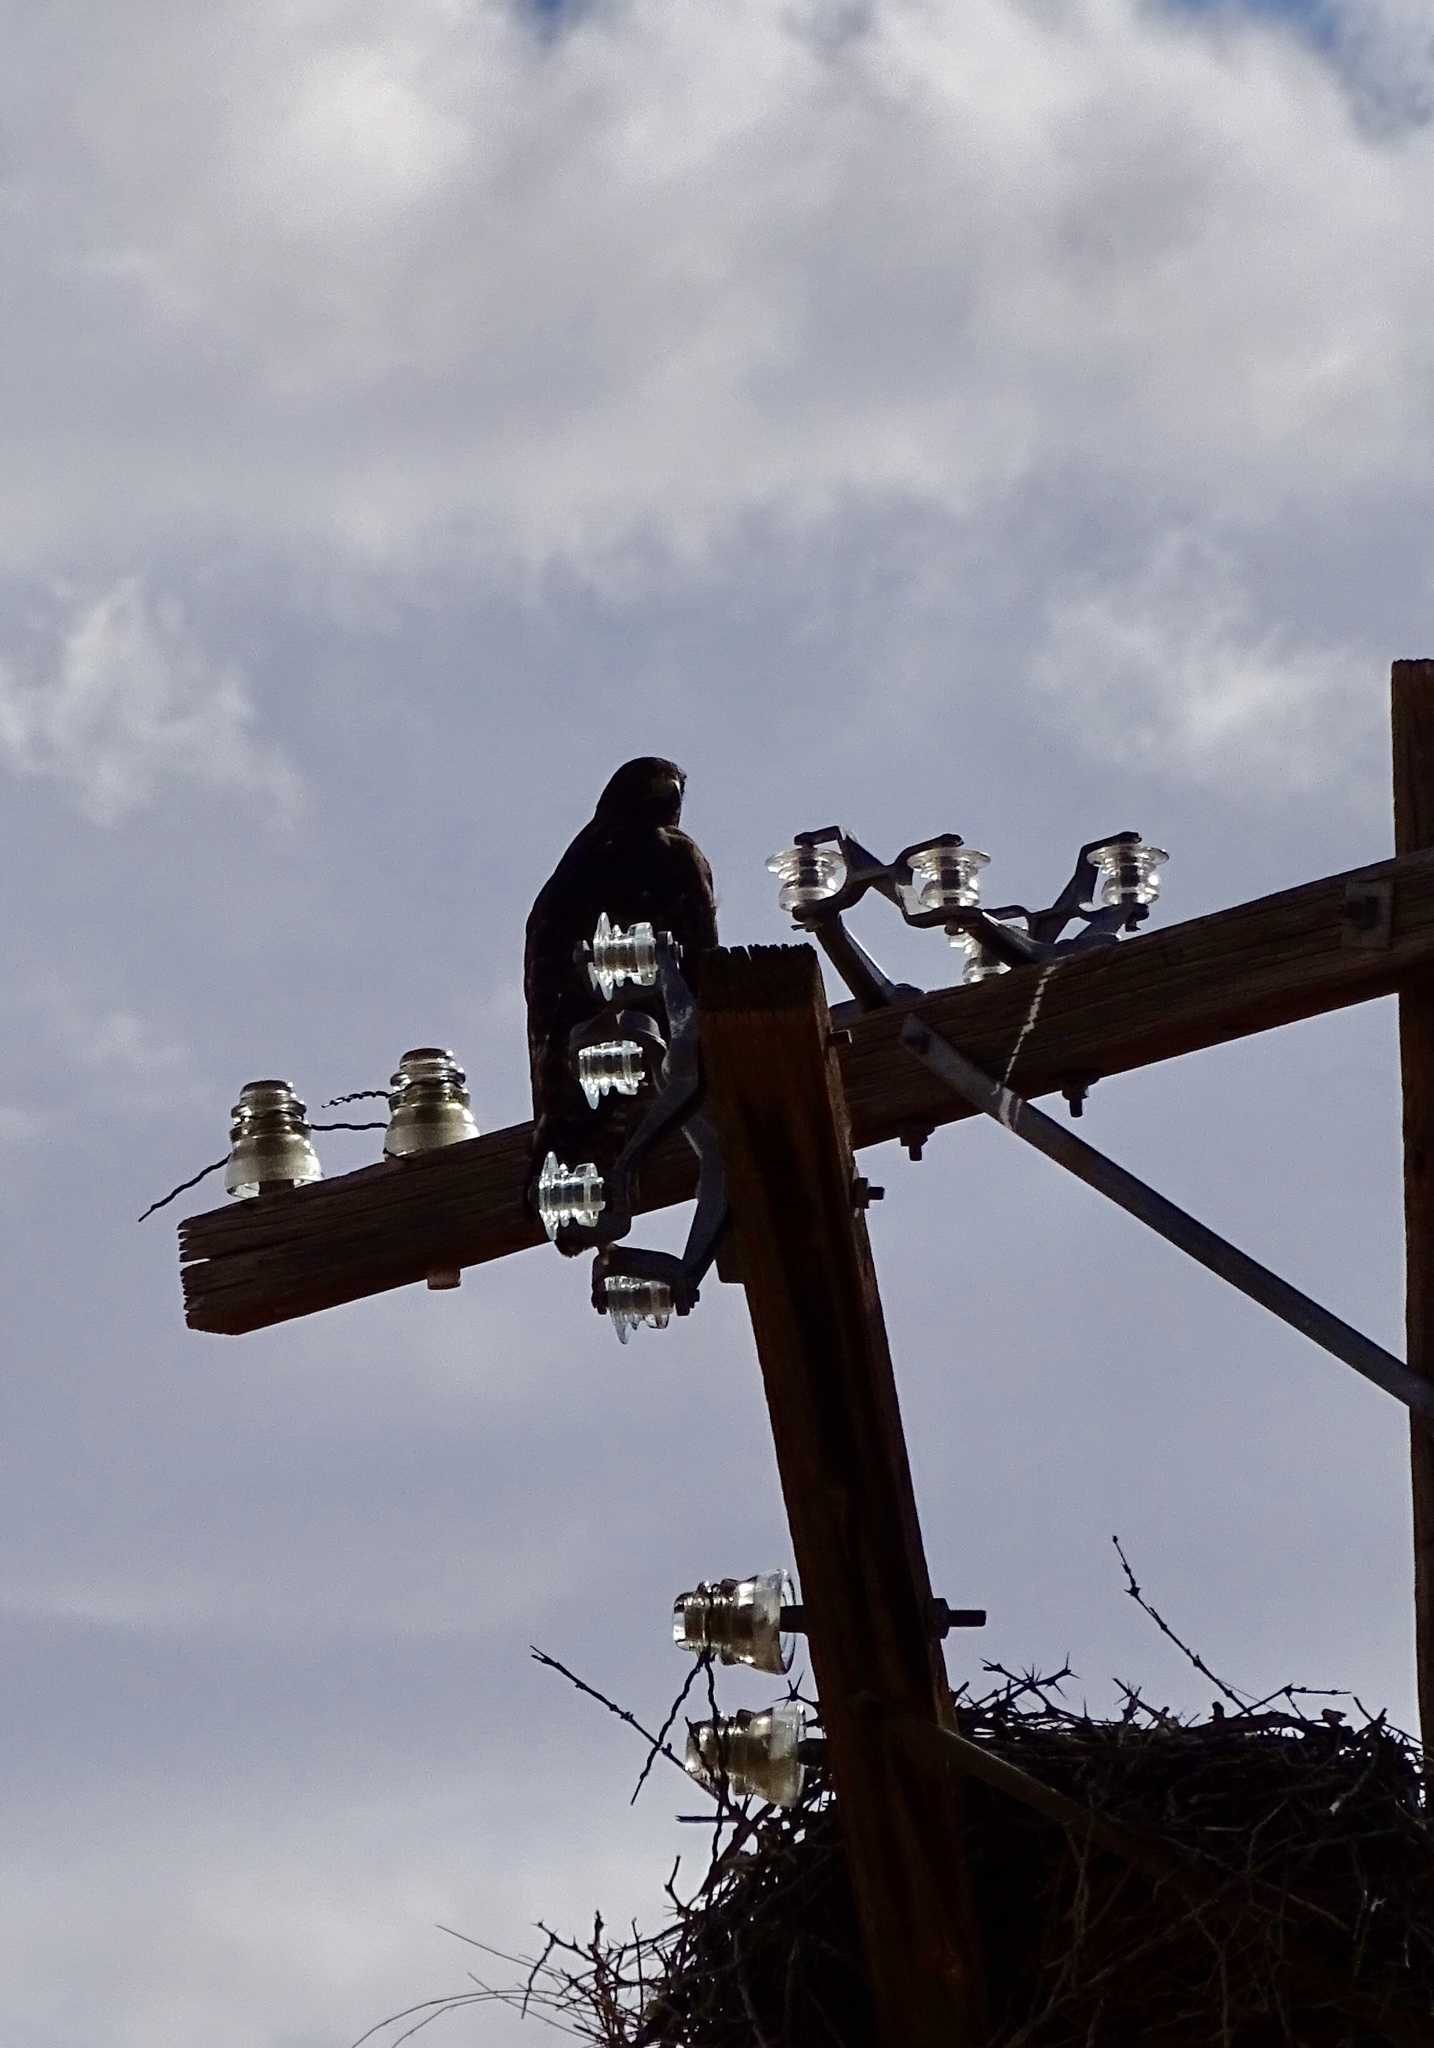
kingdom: Animalia
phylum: Chordata
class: Aves
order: Accipitriformes
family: Accipitridae
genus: Buteo
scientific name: Buteo jamaicensis
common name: Red-tailed hawk
